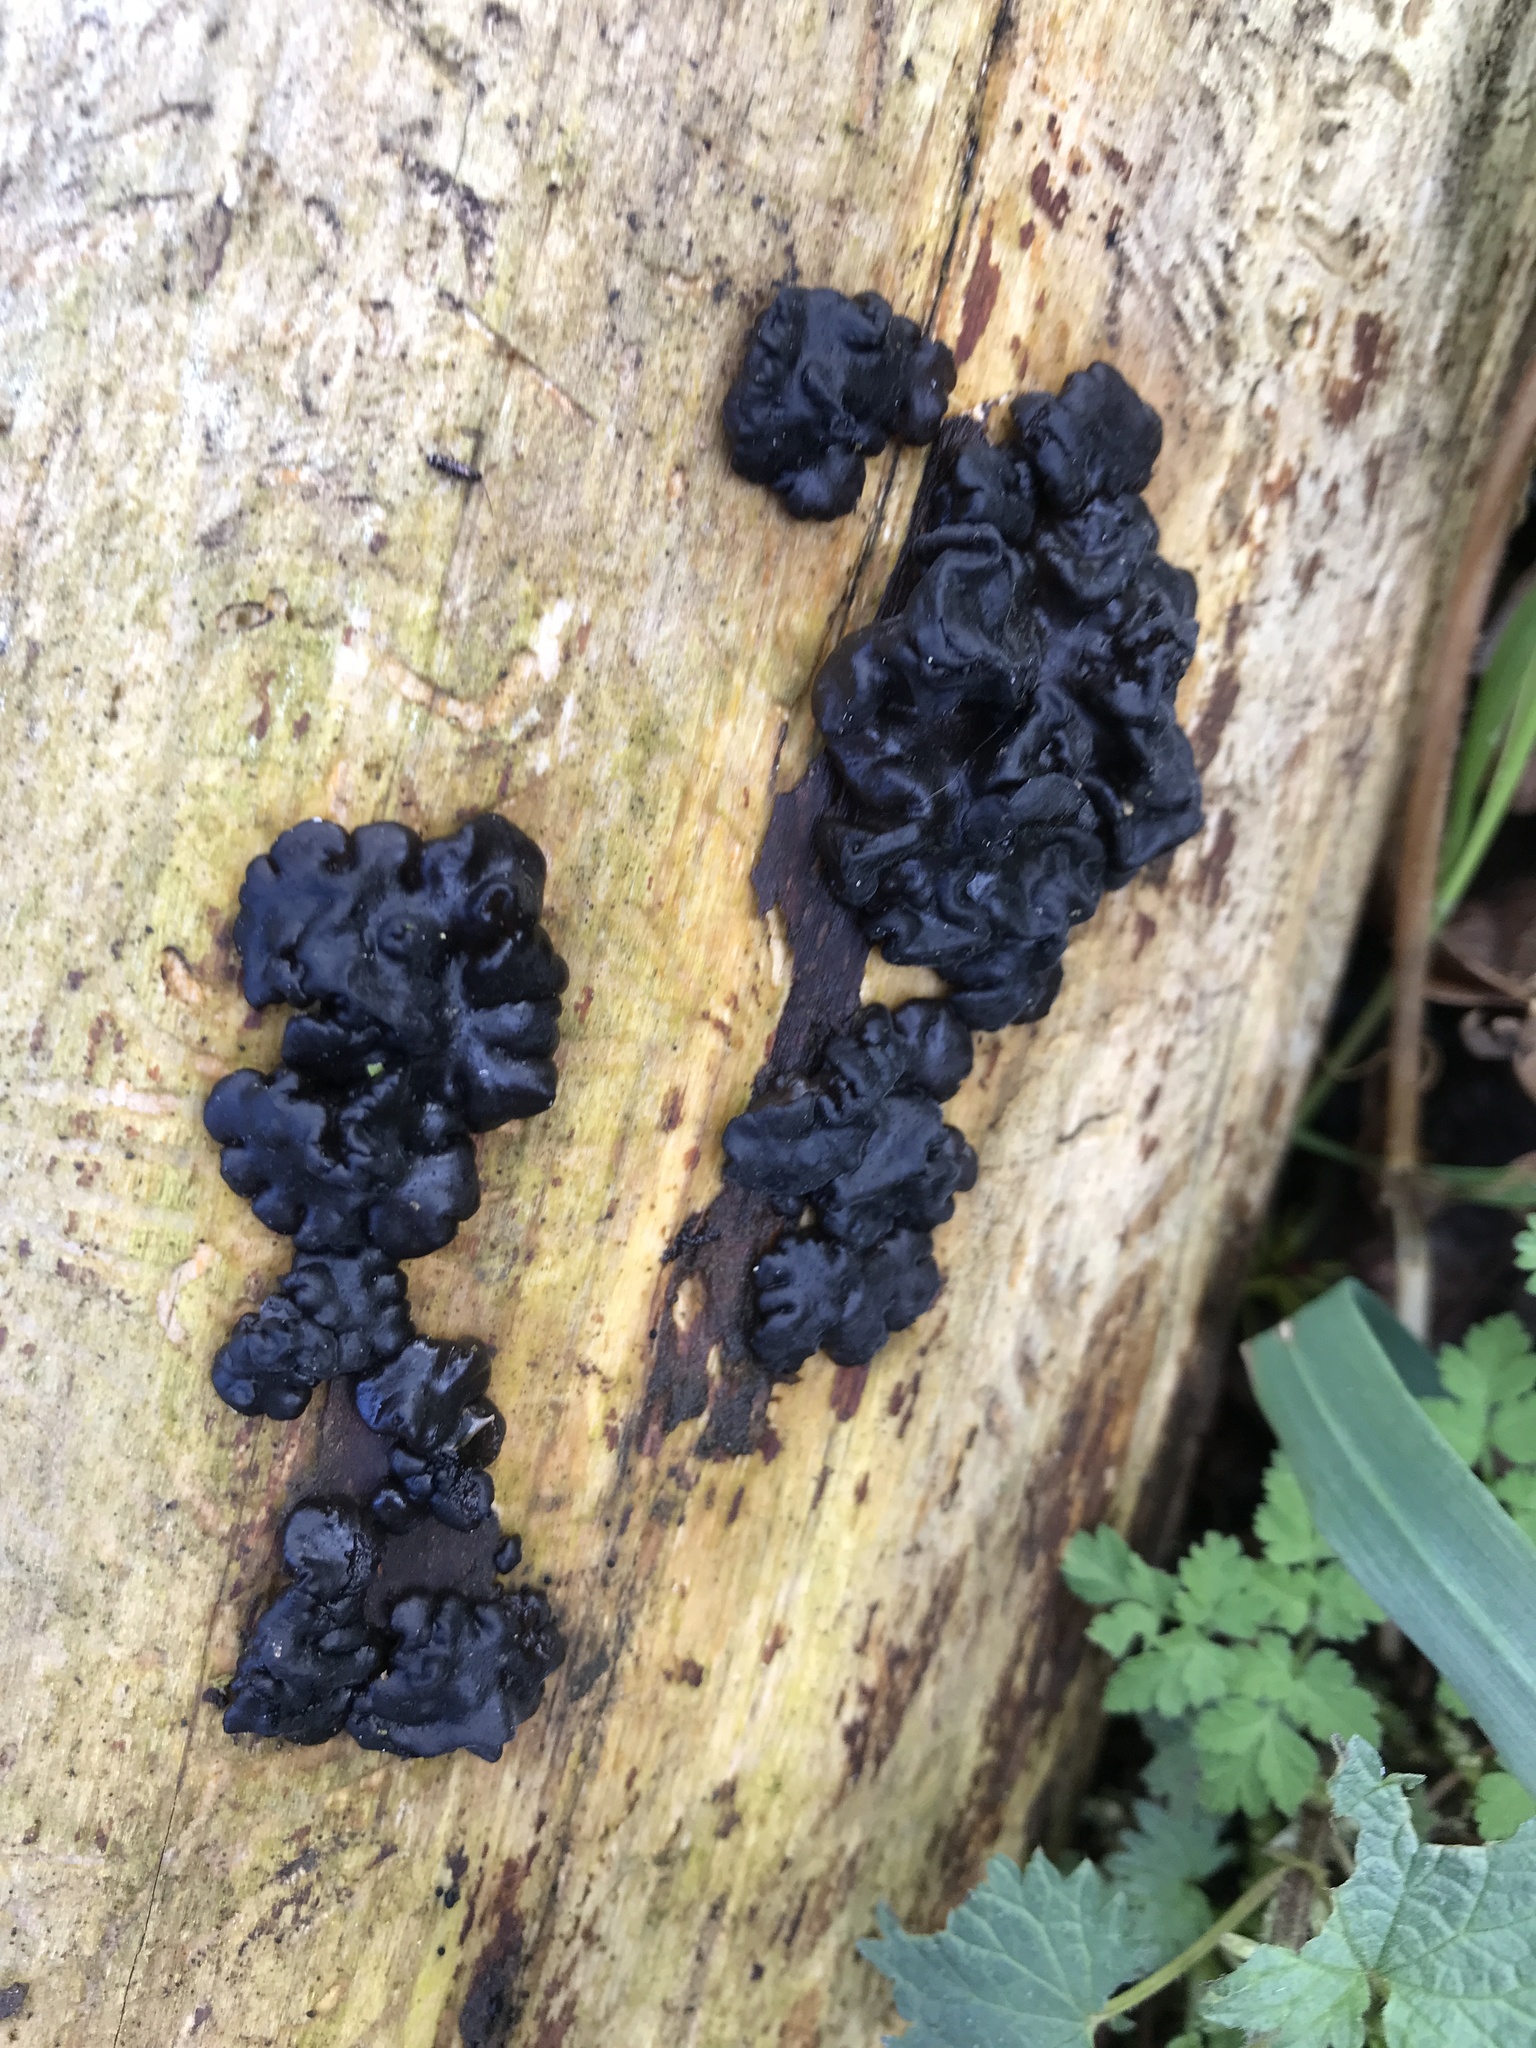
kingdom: Fungi
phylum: Basidiomycota
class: Agaricomycetes
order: Auriculariales
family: Auriculariaceae
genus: Exidia
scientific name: Exidia glandulosa
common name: Witches' butter
